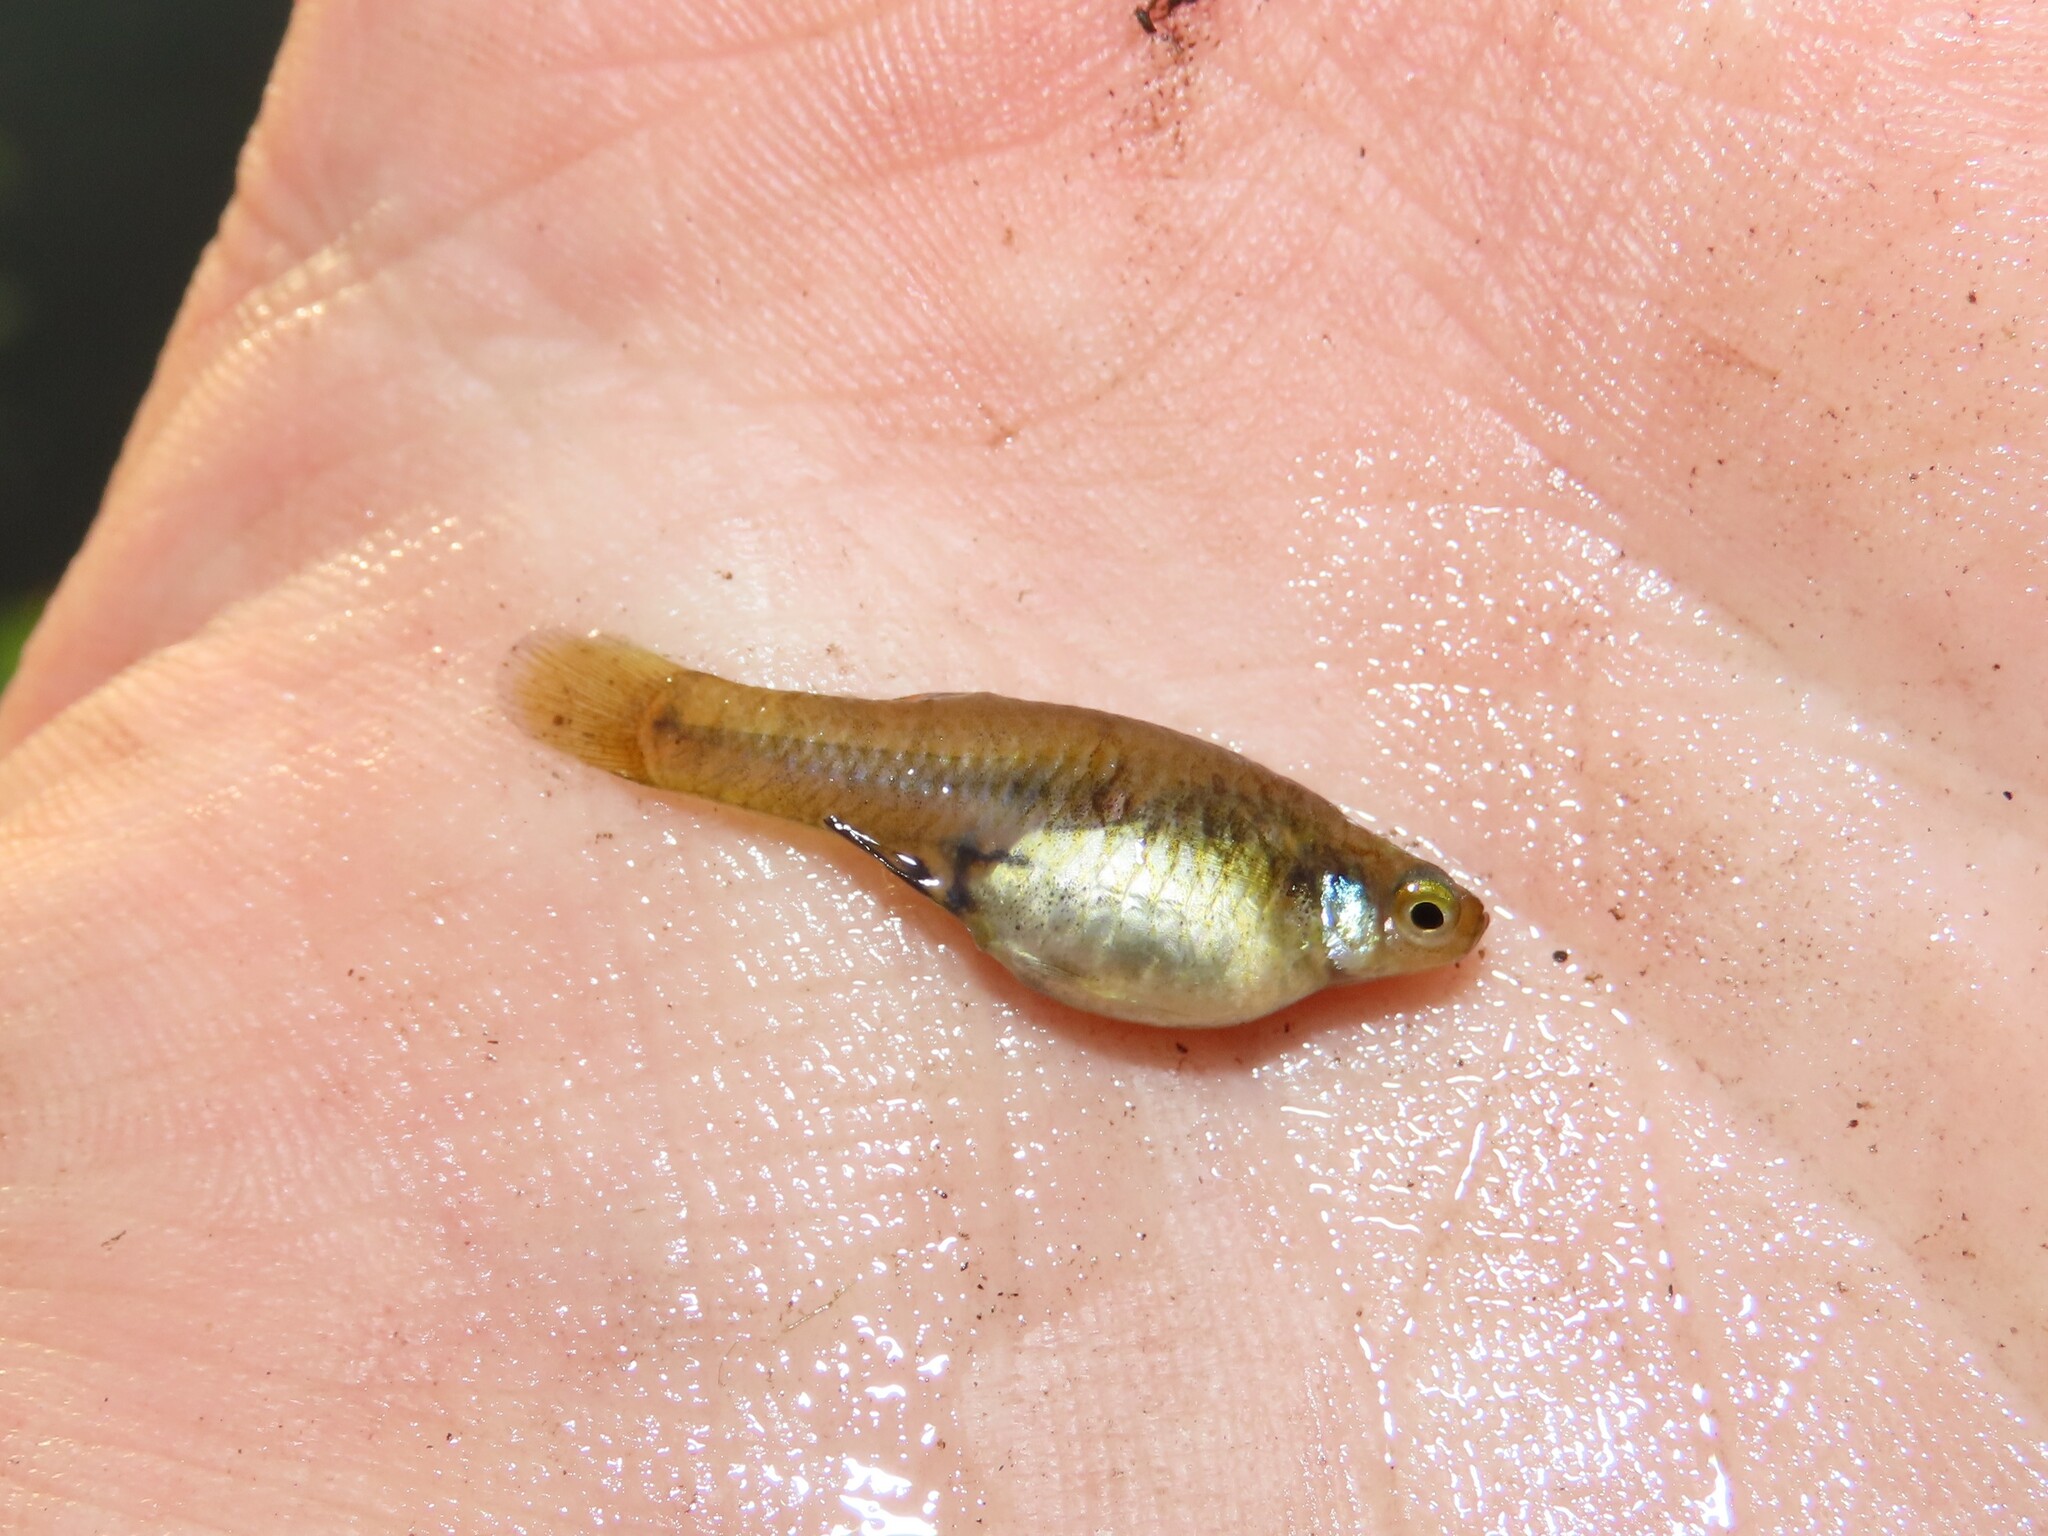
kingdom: Animalia
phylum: Chordata
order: Cyprinodontiformes
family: Poeciliidae
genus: Heterandria
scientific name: Heterandria formosa
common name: Least killifish
